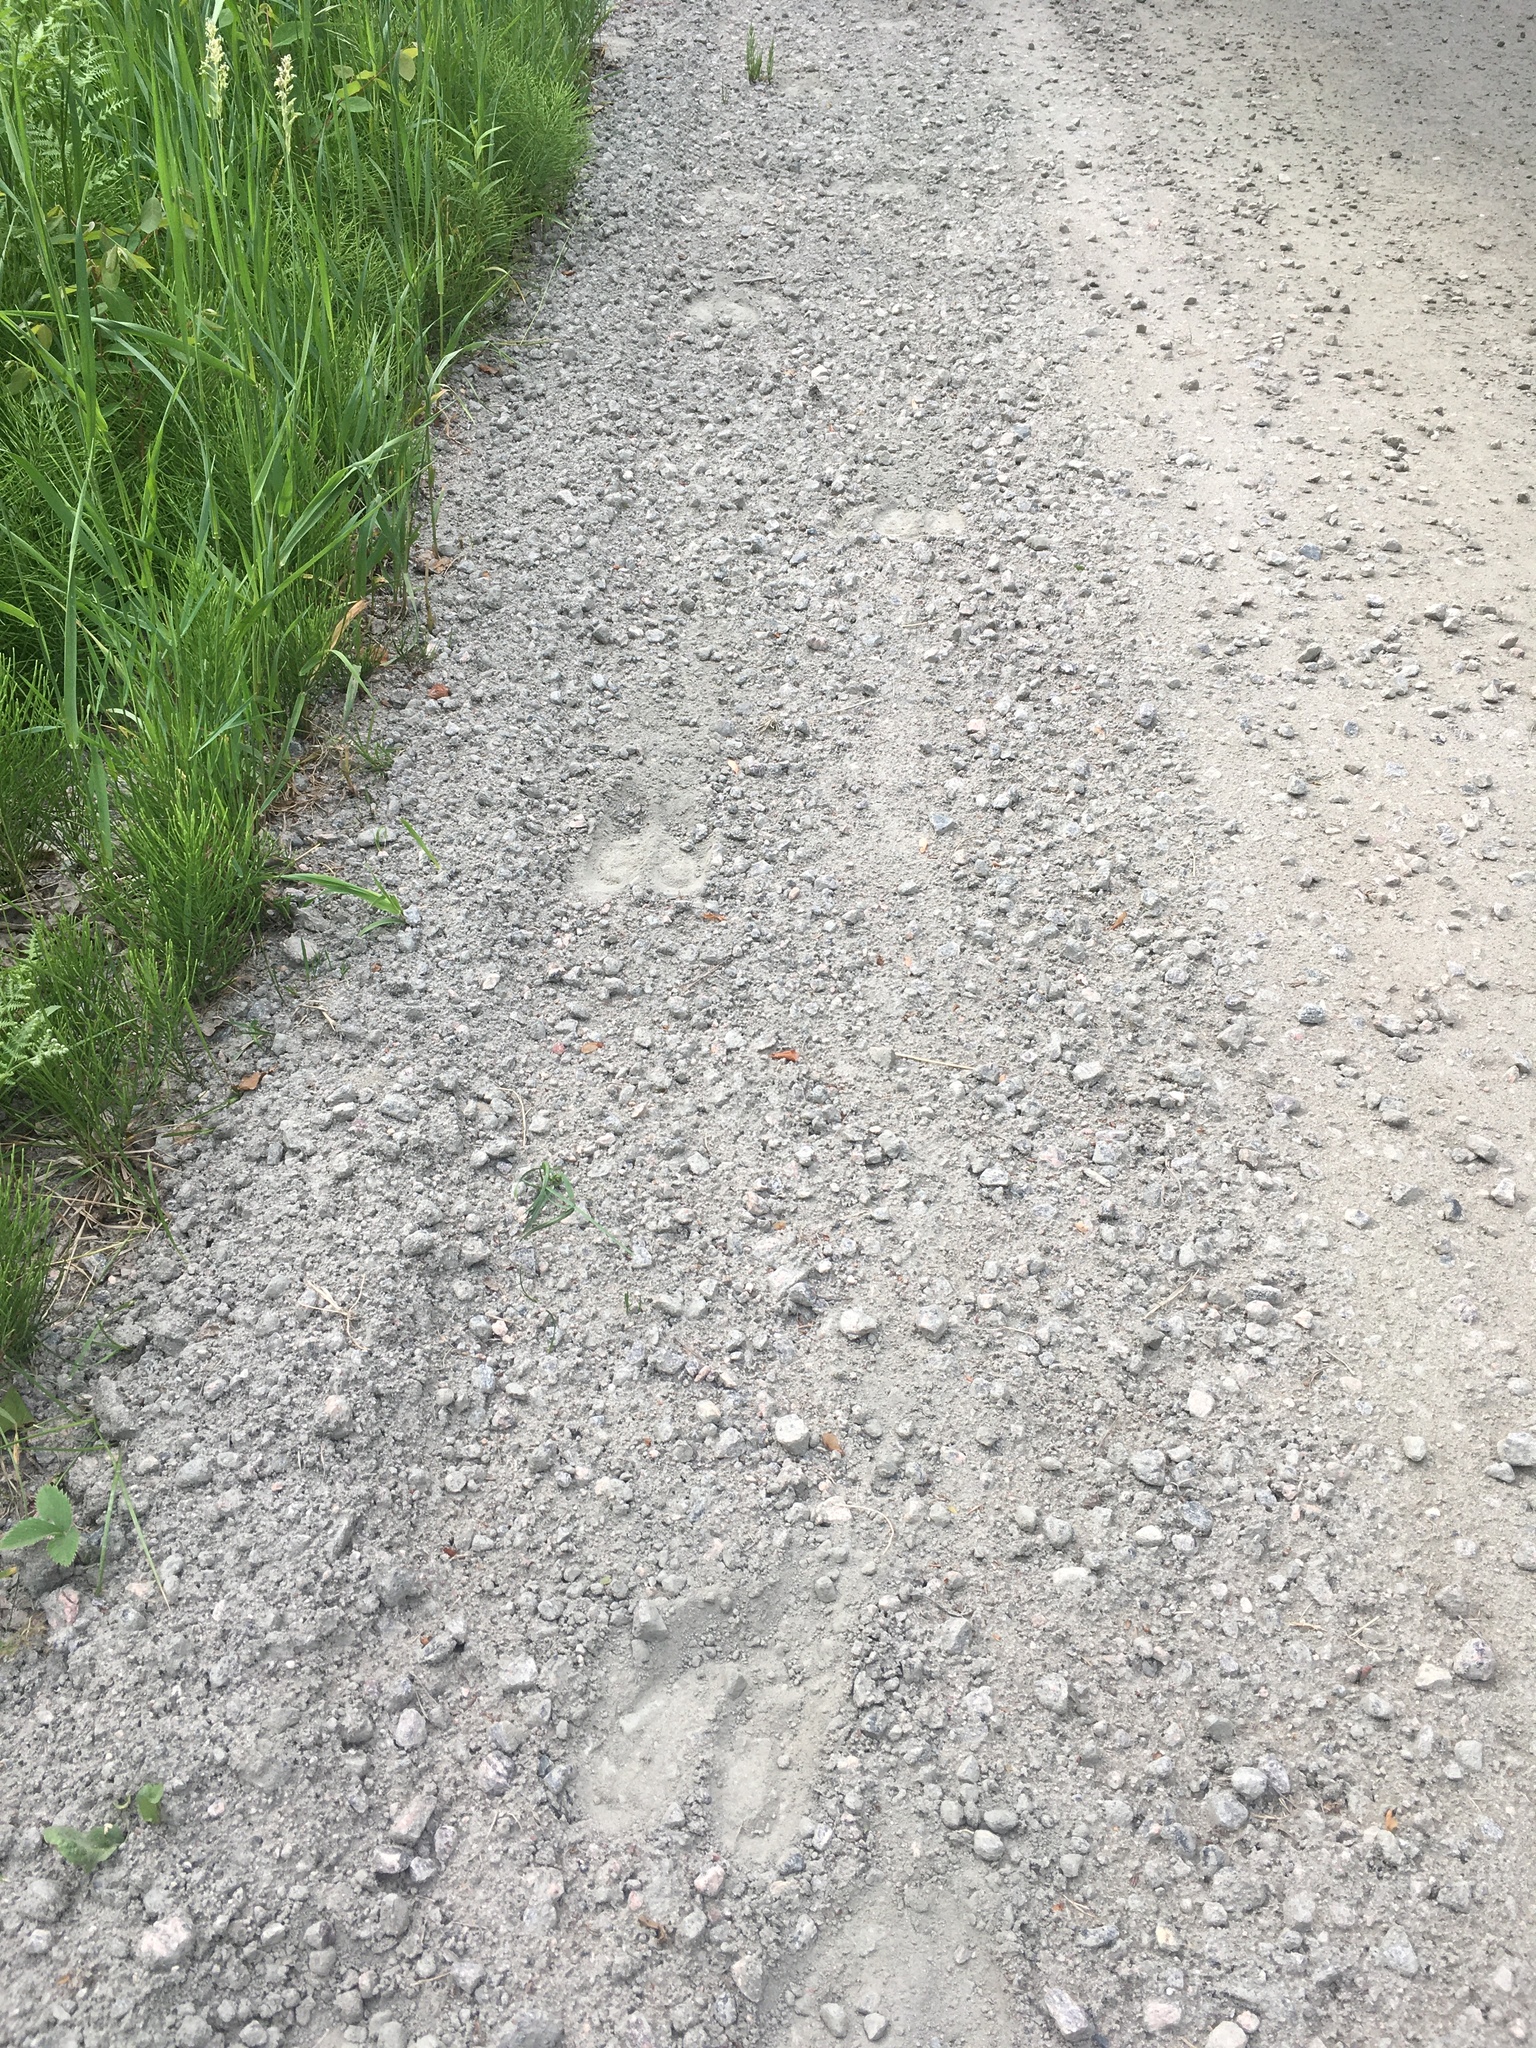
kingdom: Animalia
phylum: Chordata
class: Mammalia
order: Artiodactyla
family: Cervidae
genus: Alces
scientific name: Alces alces
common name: Moose
